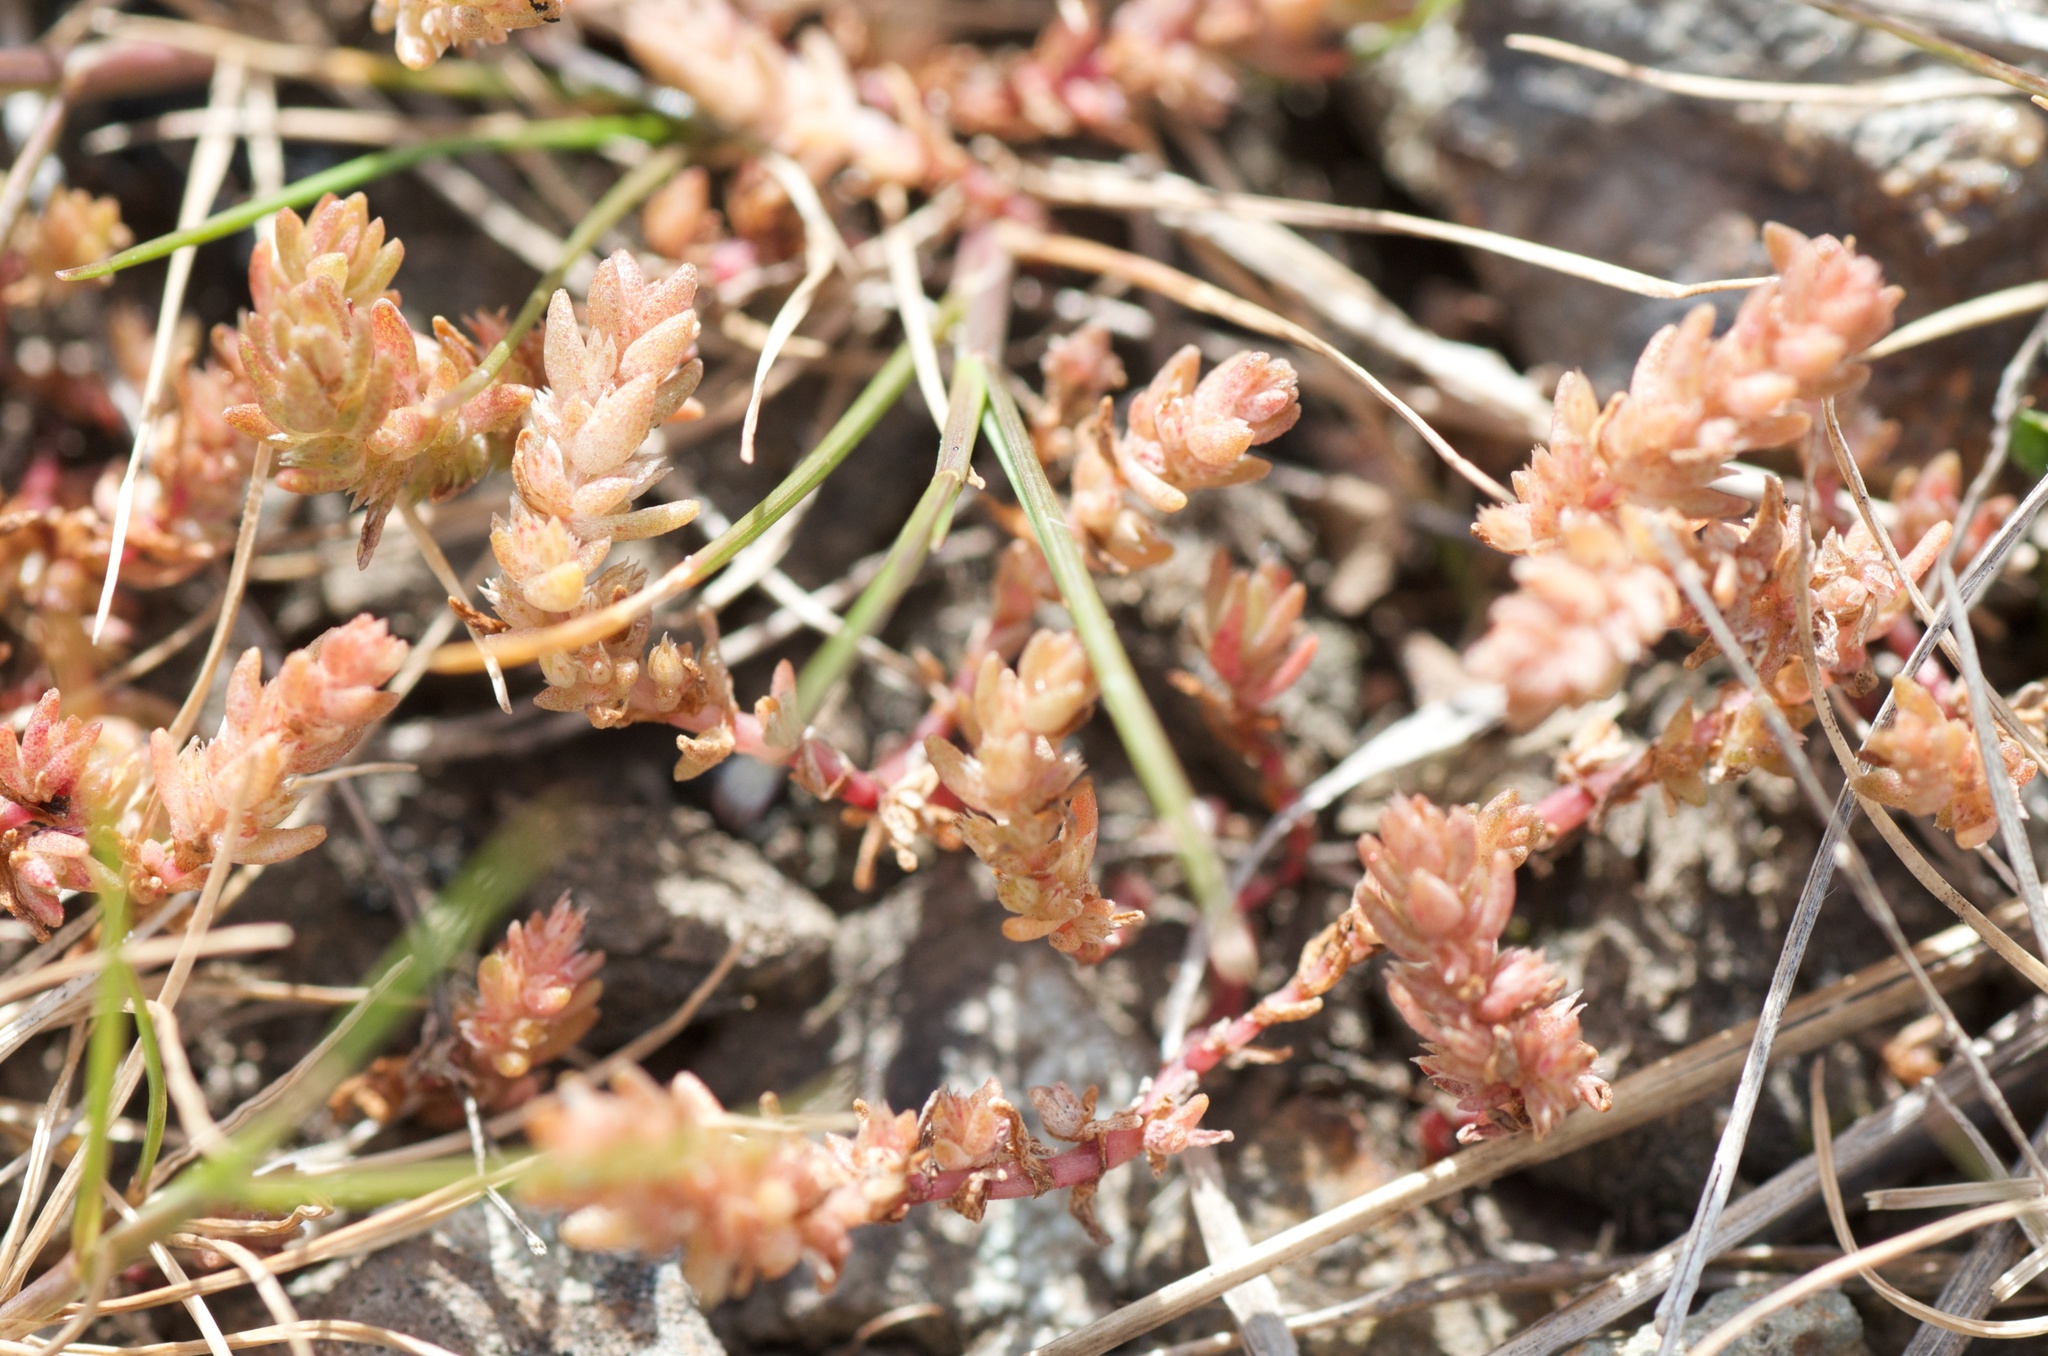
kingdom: Plantae
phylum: Tracheophyta
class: Magnoliopsida
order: Saxifragales
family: Crassulaceae
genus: Crassula
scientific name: Crassula sieberiana
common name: Siberian pygmyweed
